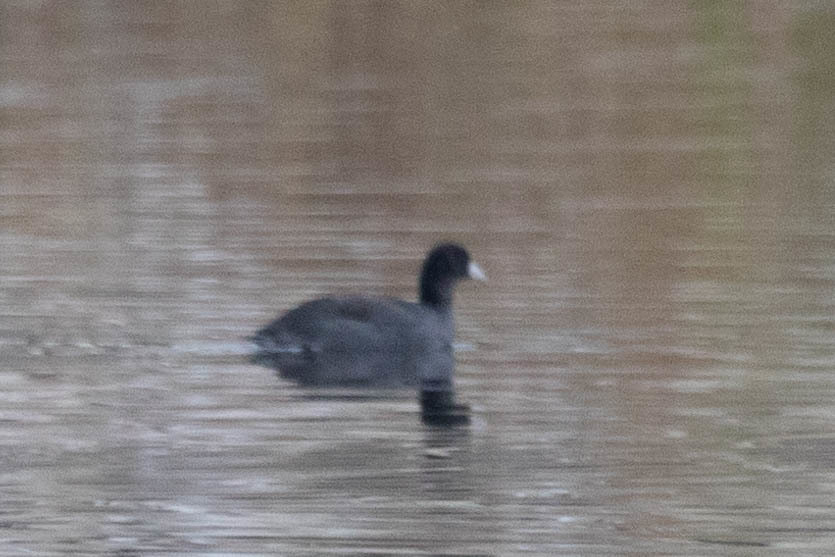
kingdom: Animalia
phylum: Chordata
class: Aves
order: Gruiformes
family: Rallidae
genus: Fulica
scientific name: Fulica americana
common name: American coot
